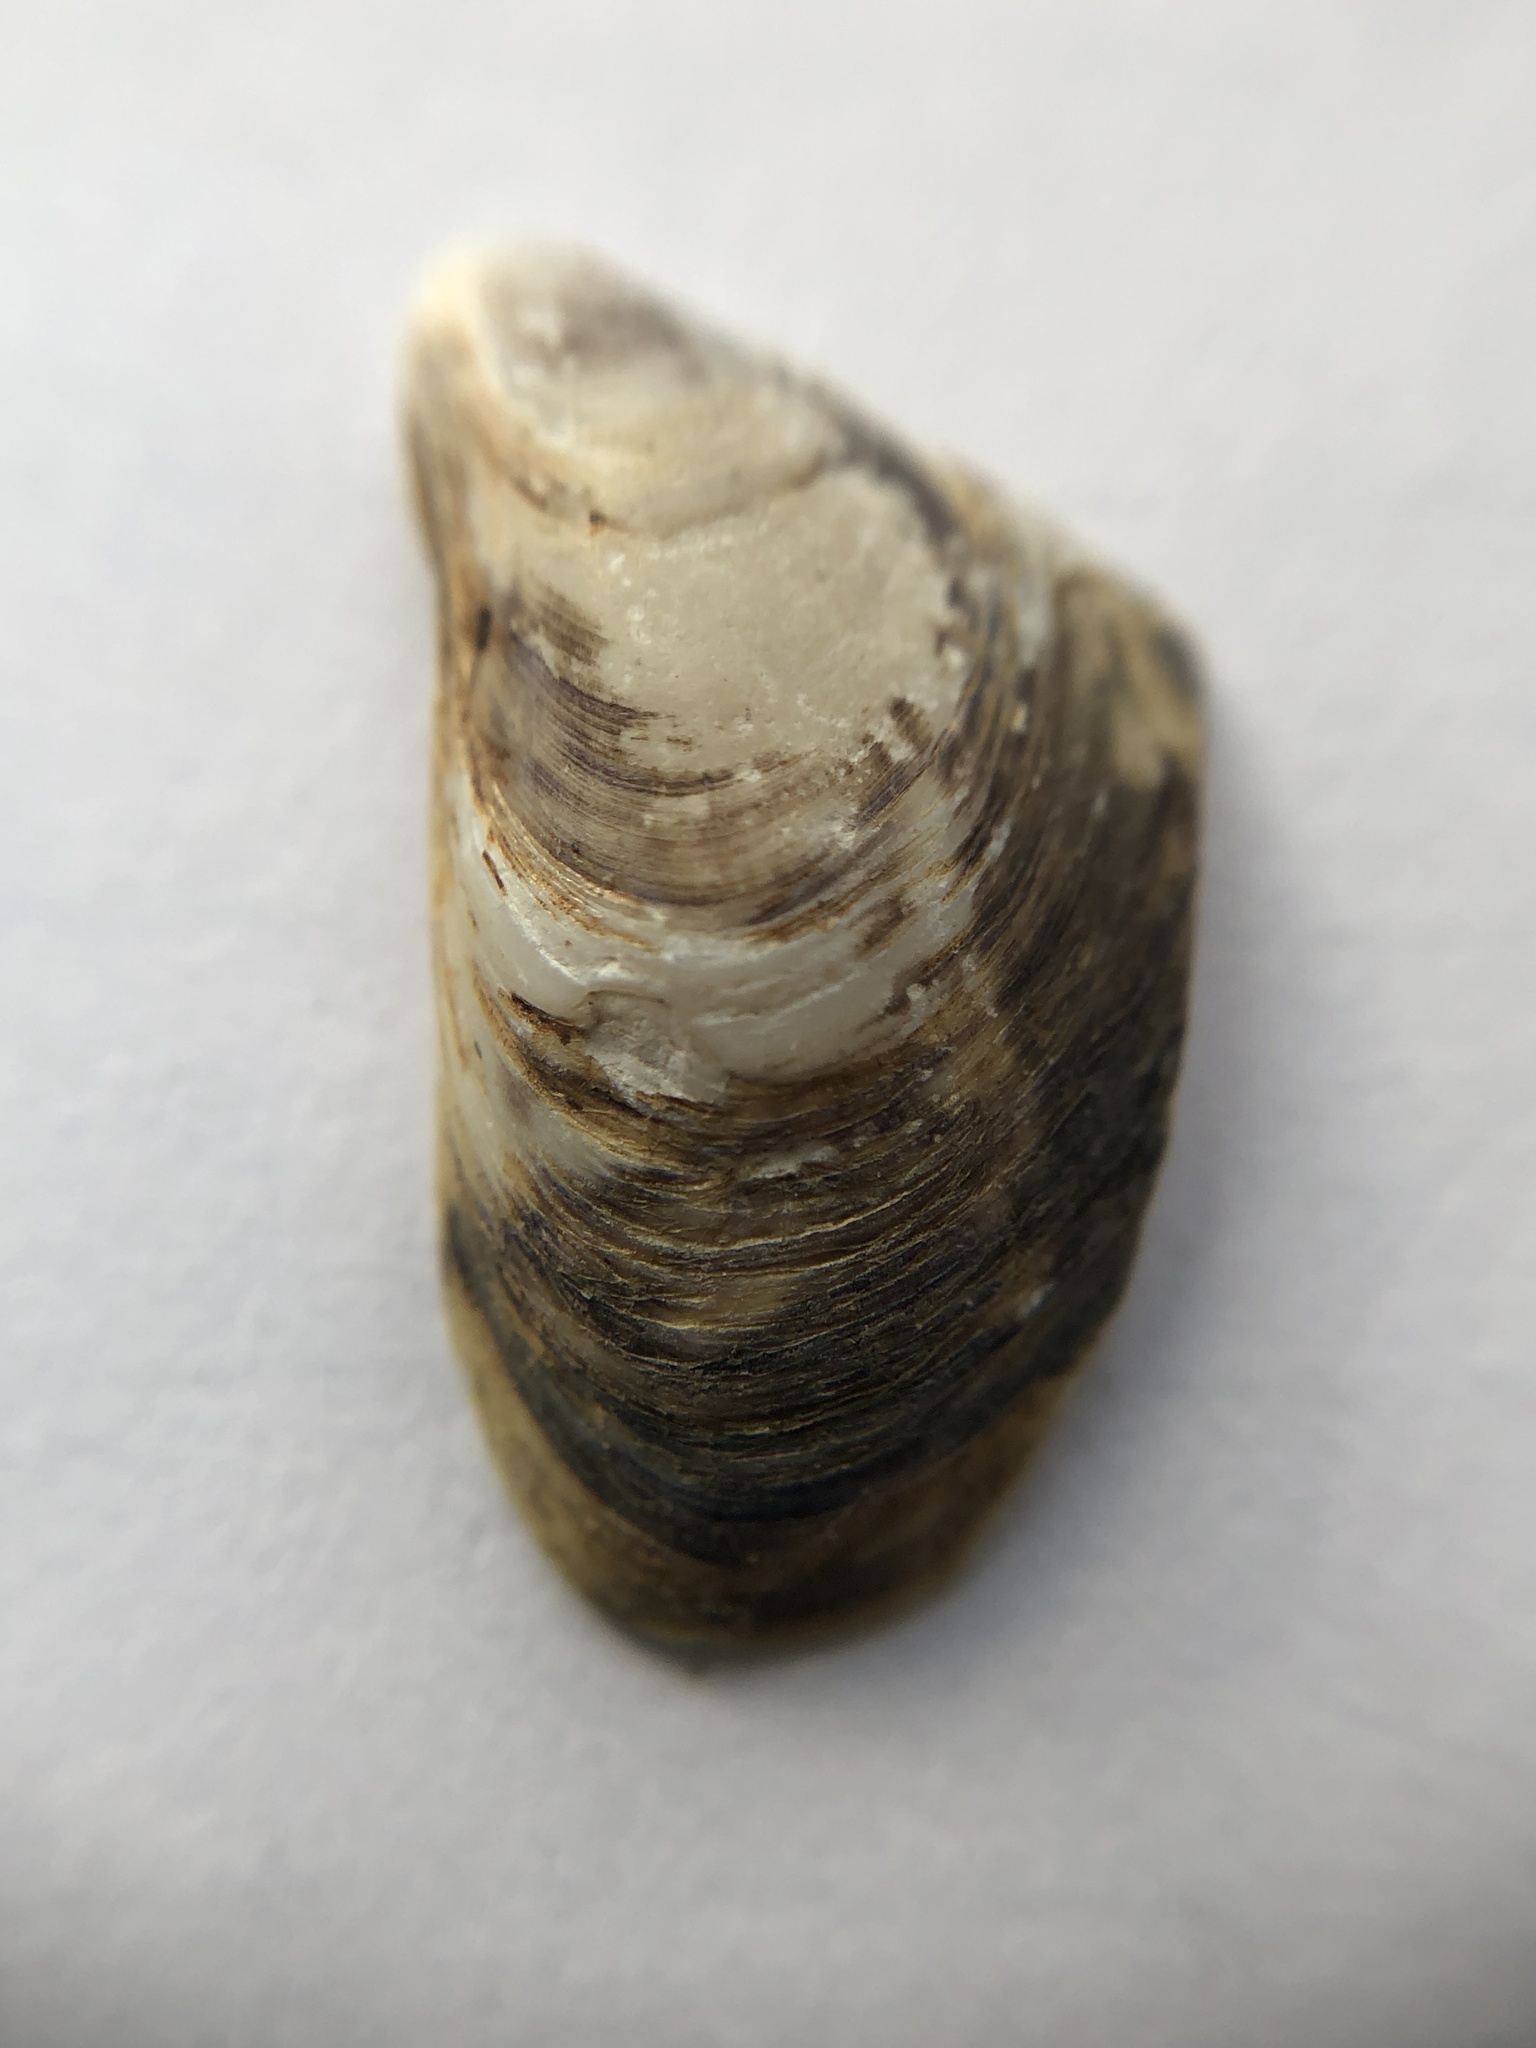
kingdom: Animalia
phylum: Mollusca
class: Bivalvia
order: Myida
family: Dreissenidae
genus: Dreissena
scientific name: Dreissena bugensis
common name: Quagga mussel
